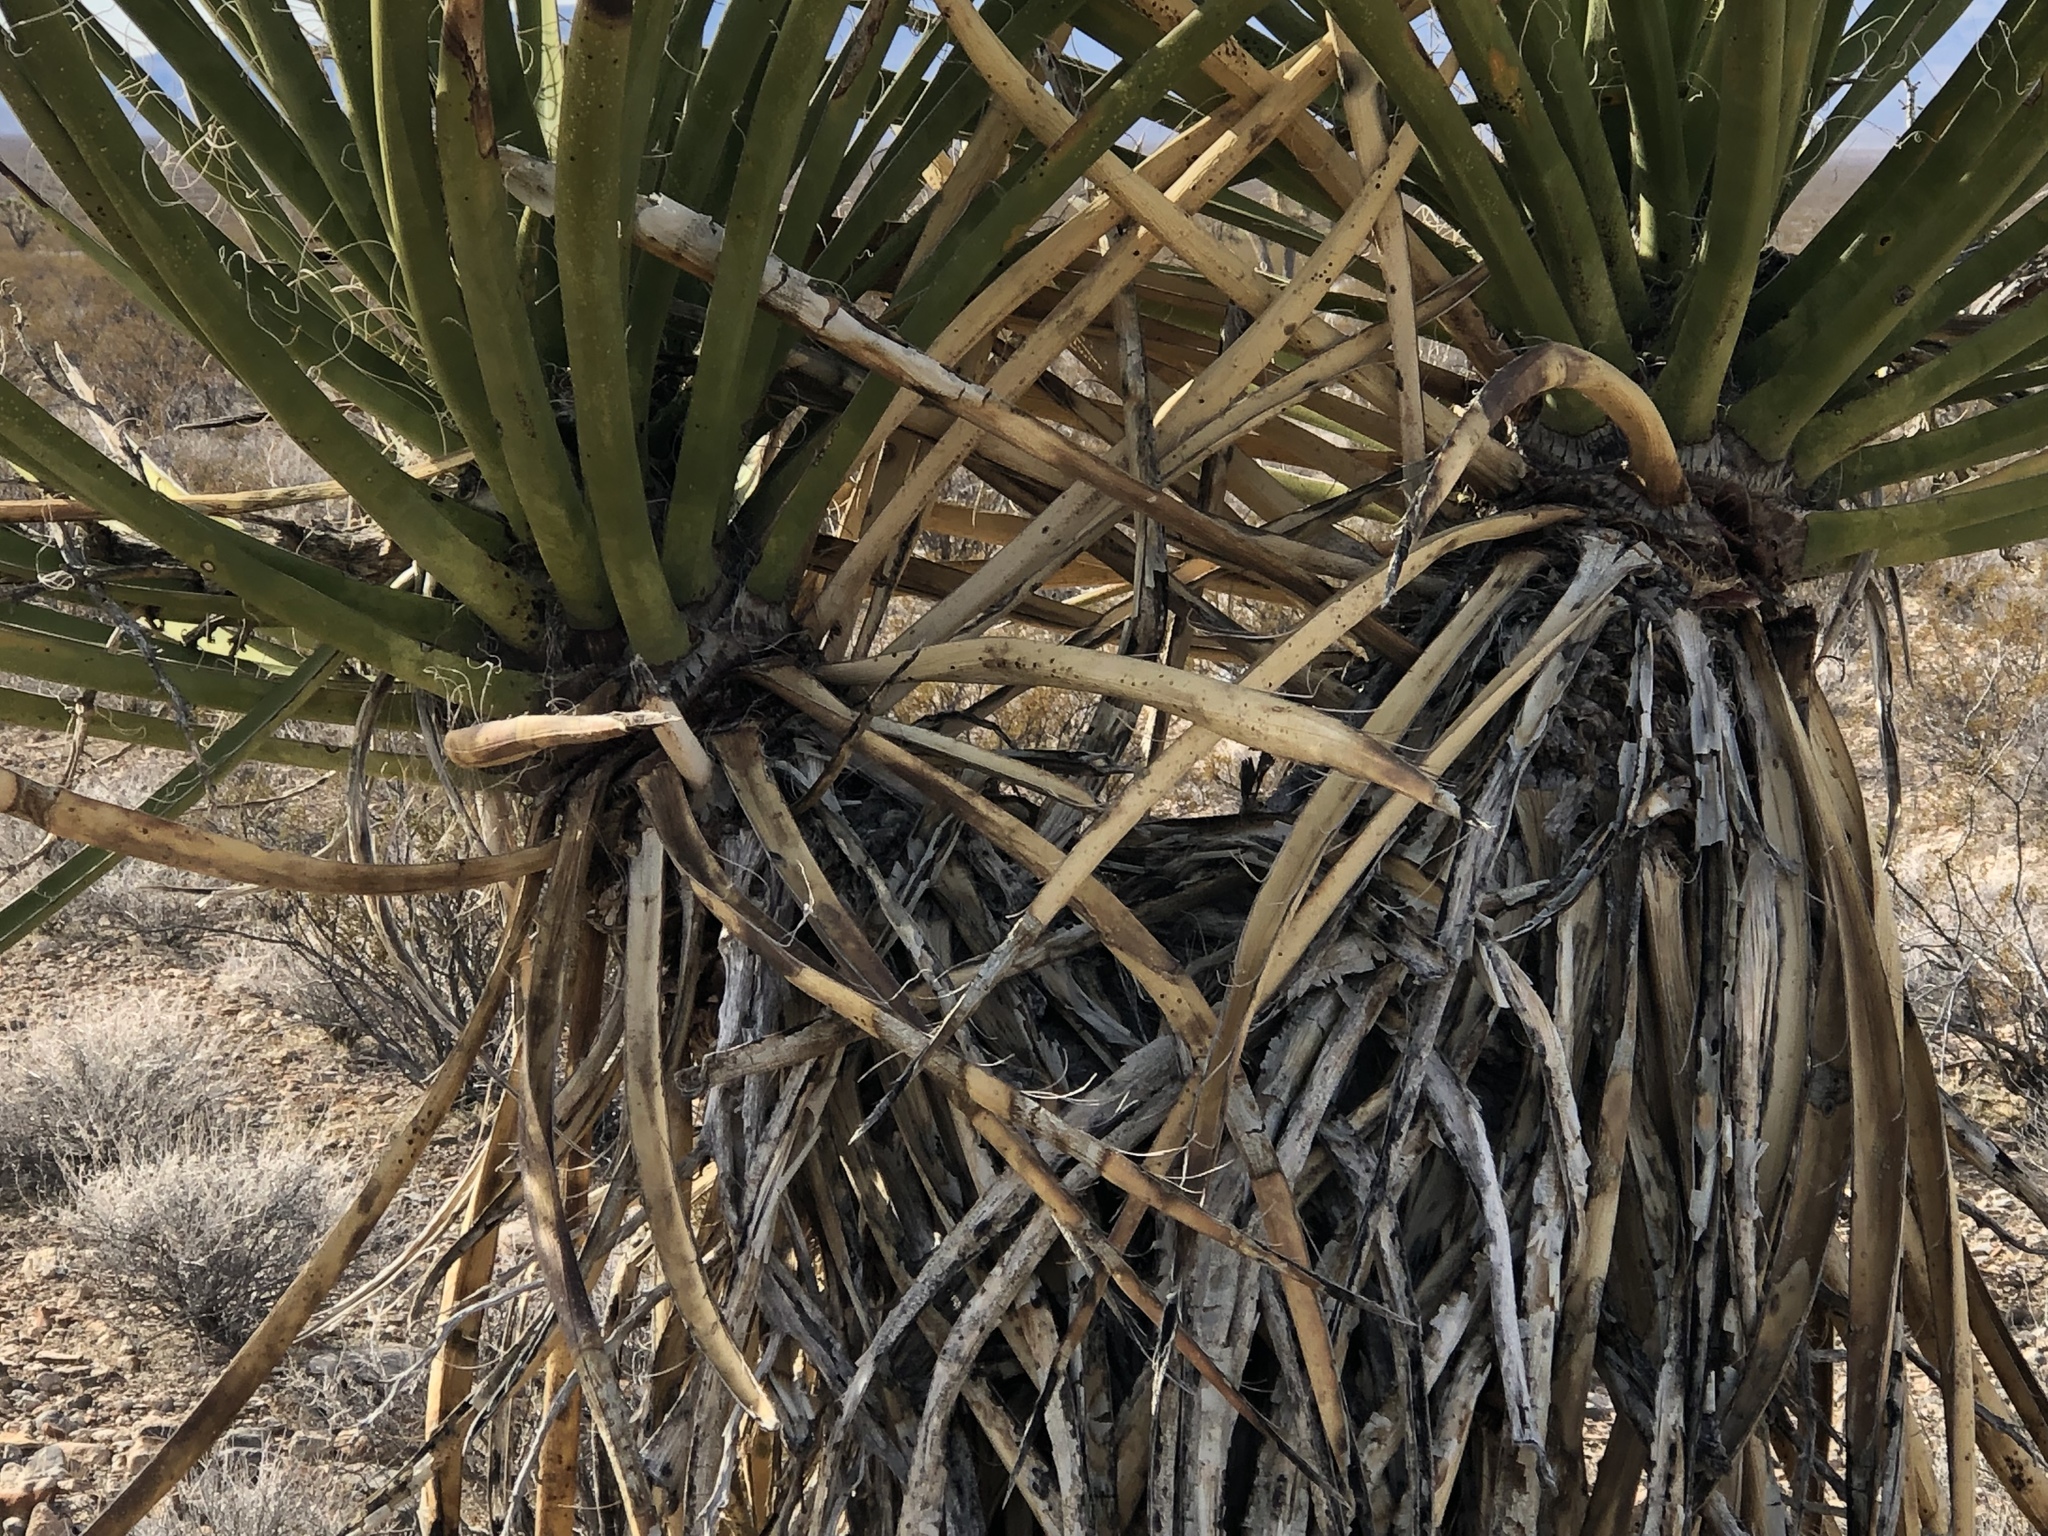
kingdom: Plantae
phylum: Tracheophyta
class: Liliopsida
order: Asparagales
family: Asparagaceae
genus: Yucca
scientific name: Yucca schidigera
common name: Mojave yucca
